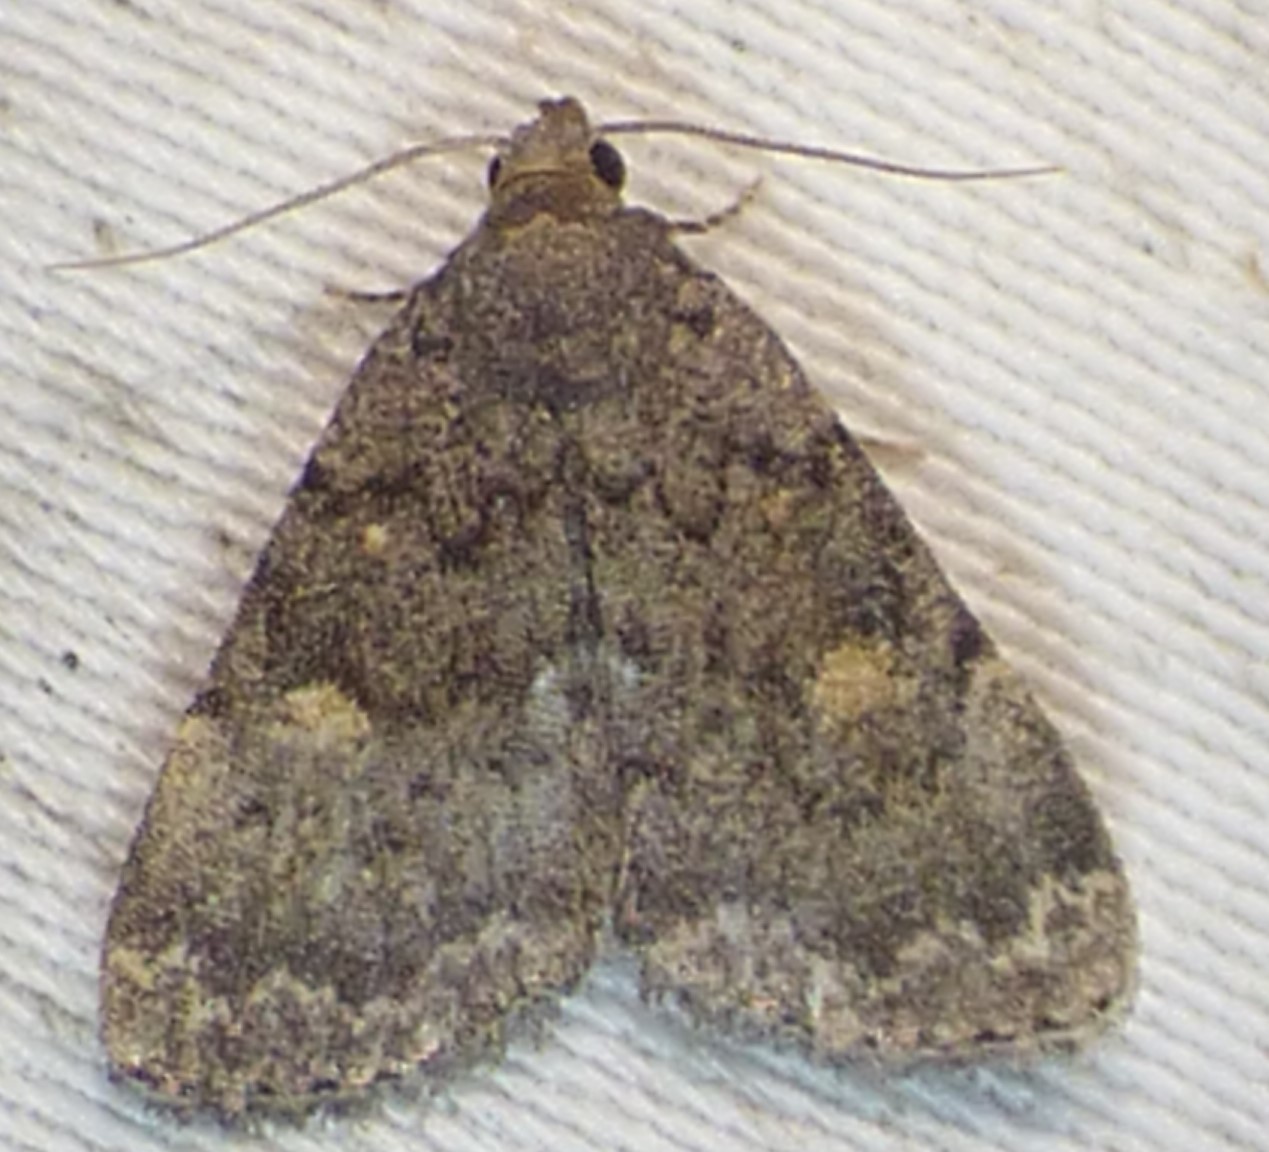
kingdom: Animalia
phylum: Arthropoda
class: Insecta
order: Lepidoptera
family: Erebidae
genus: Idia
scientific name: Idia aemula
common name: Common idia moth
